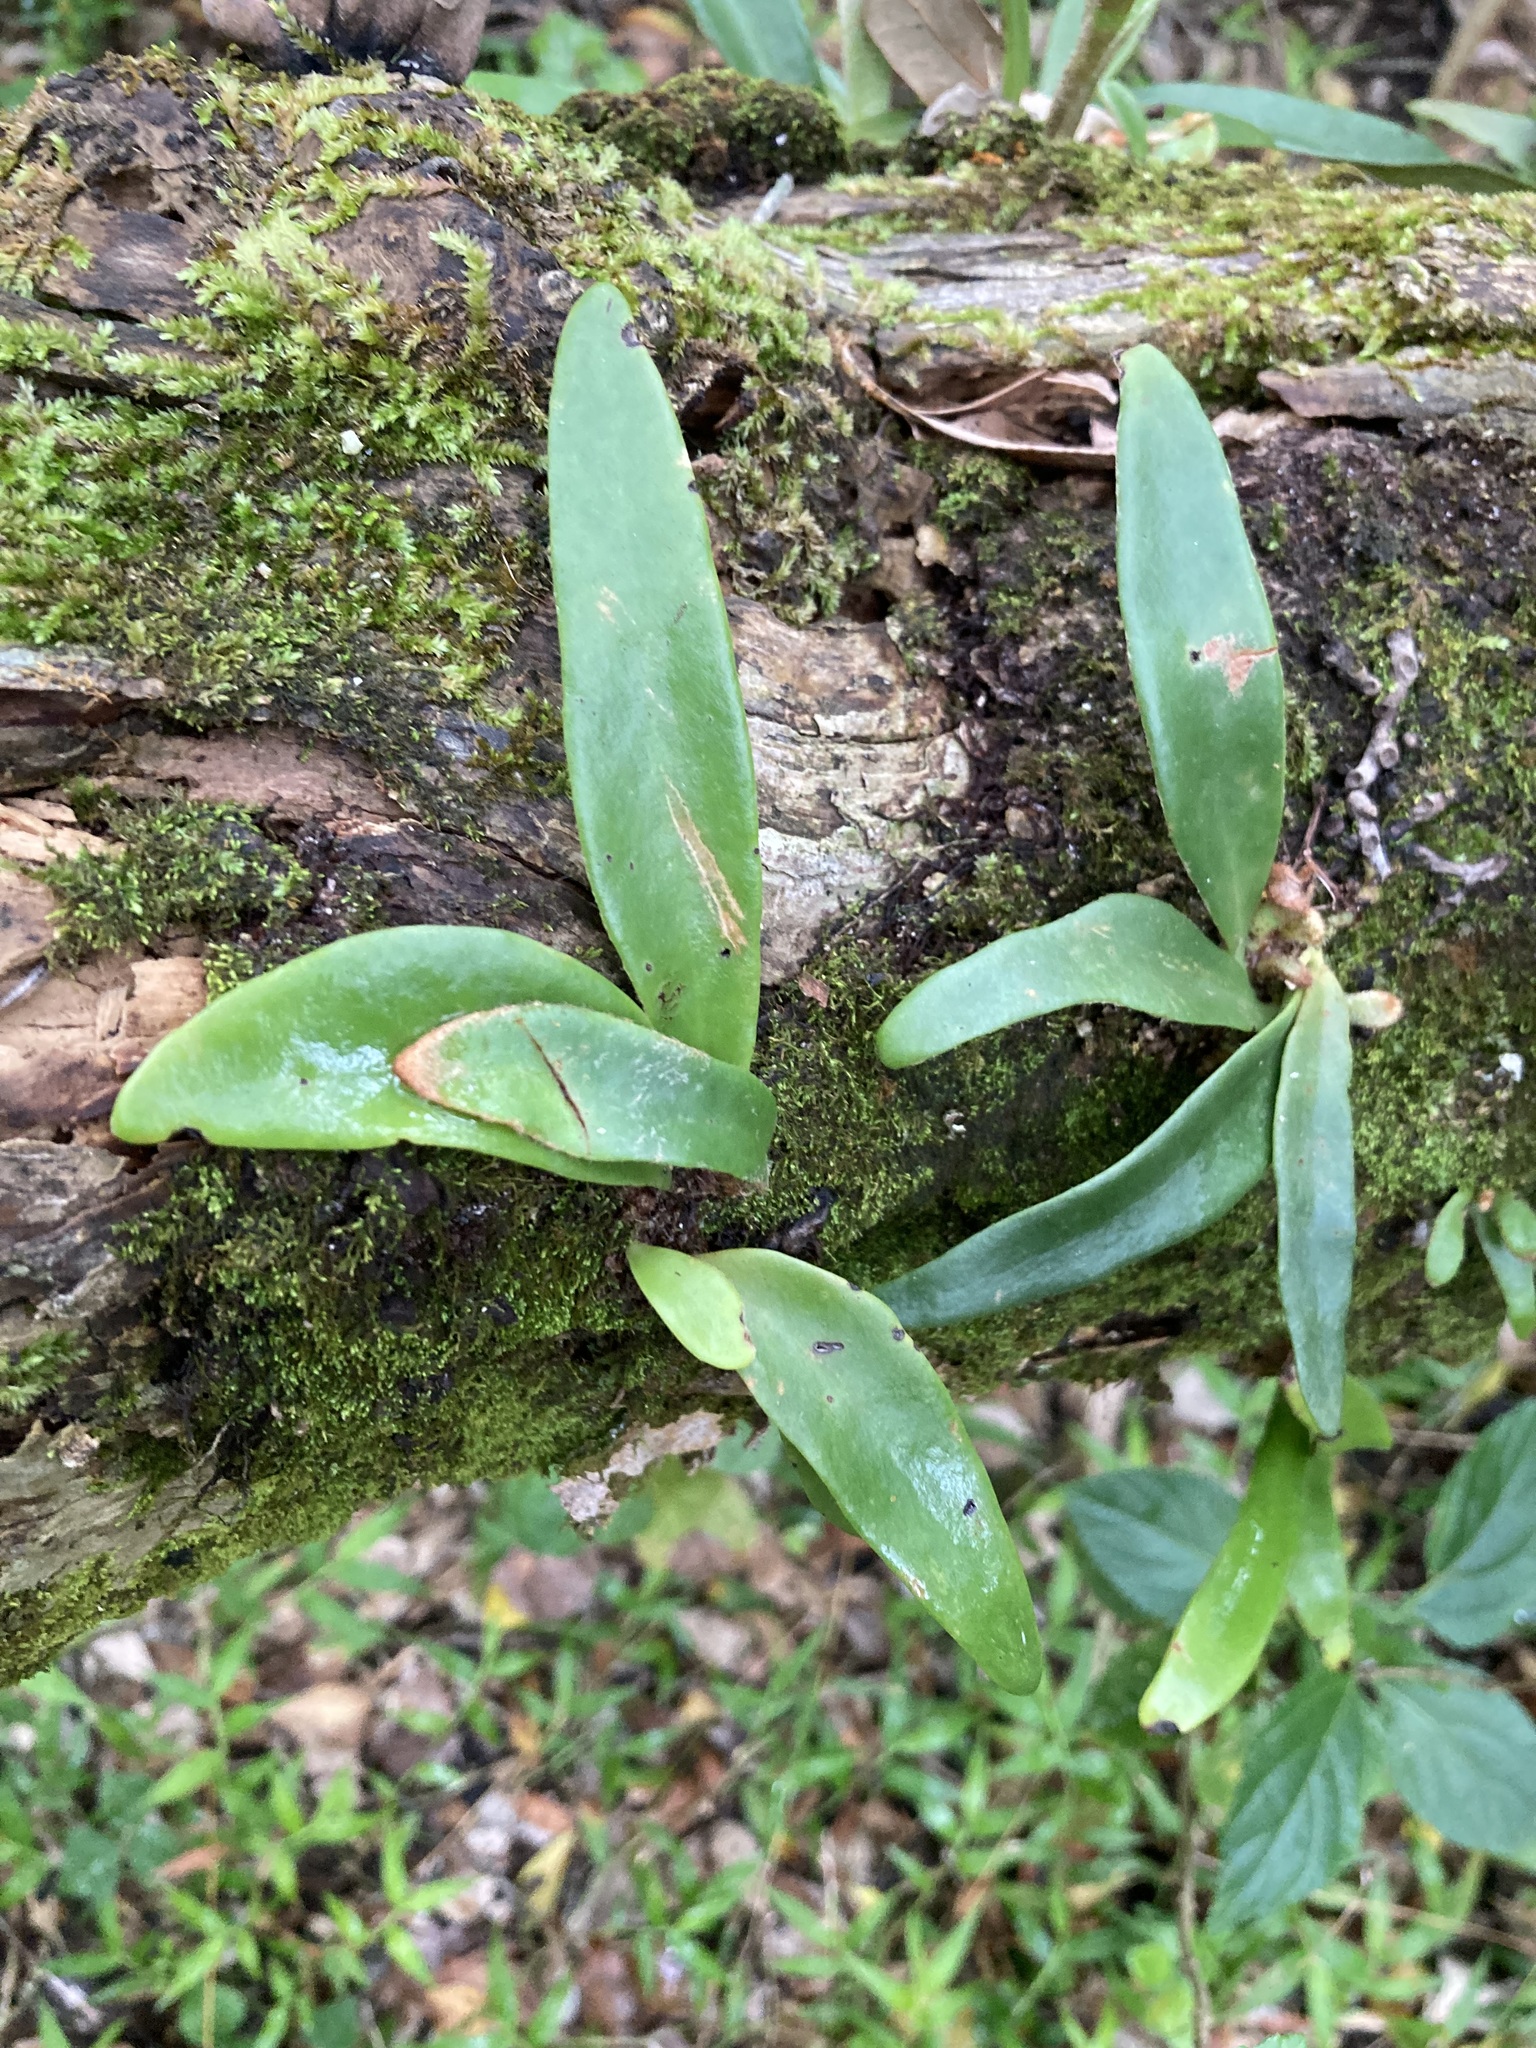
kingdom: Plantae
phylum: Tracheophyta
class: Polypodiopsida
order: Polypodiales
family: Polypodiaceae
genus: Hovenkampia
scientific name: Hovenkampia africana
